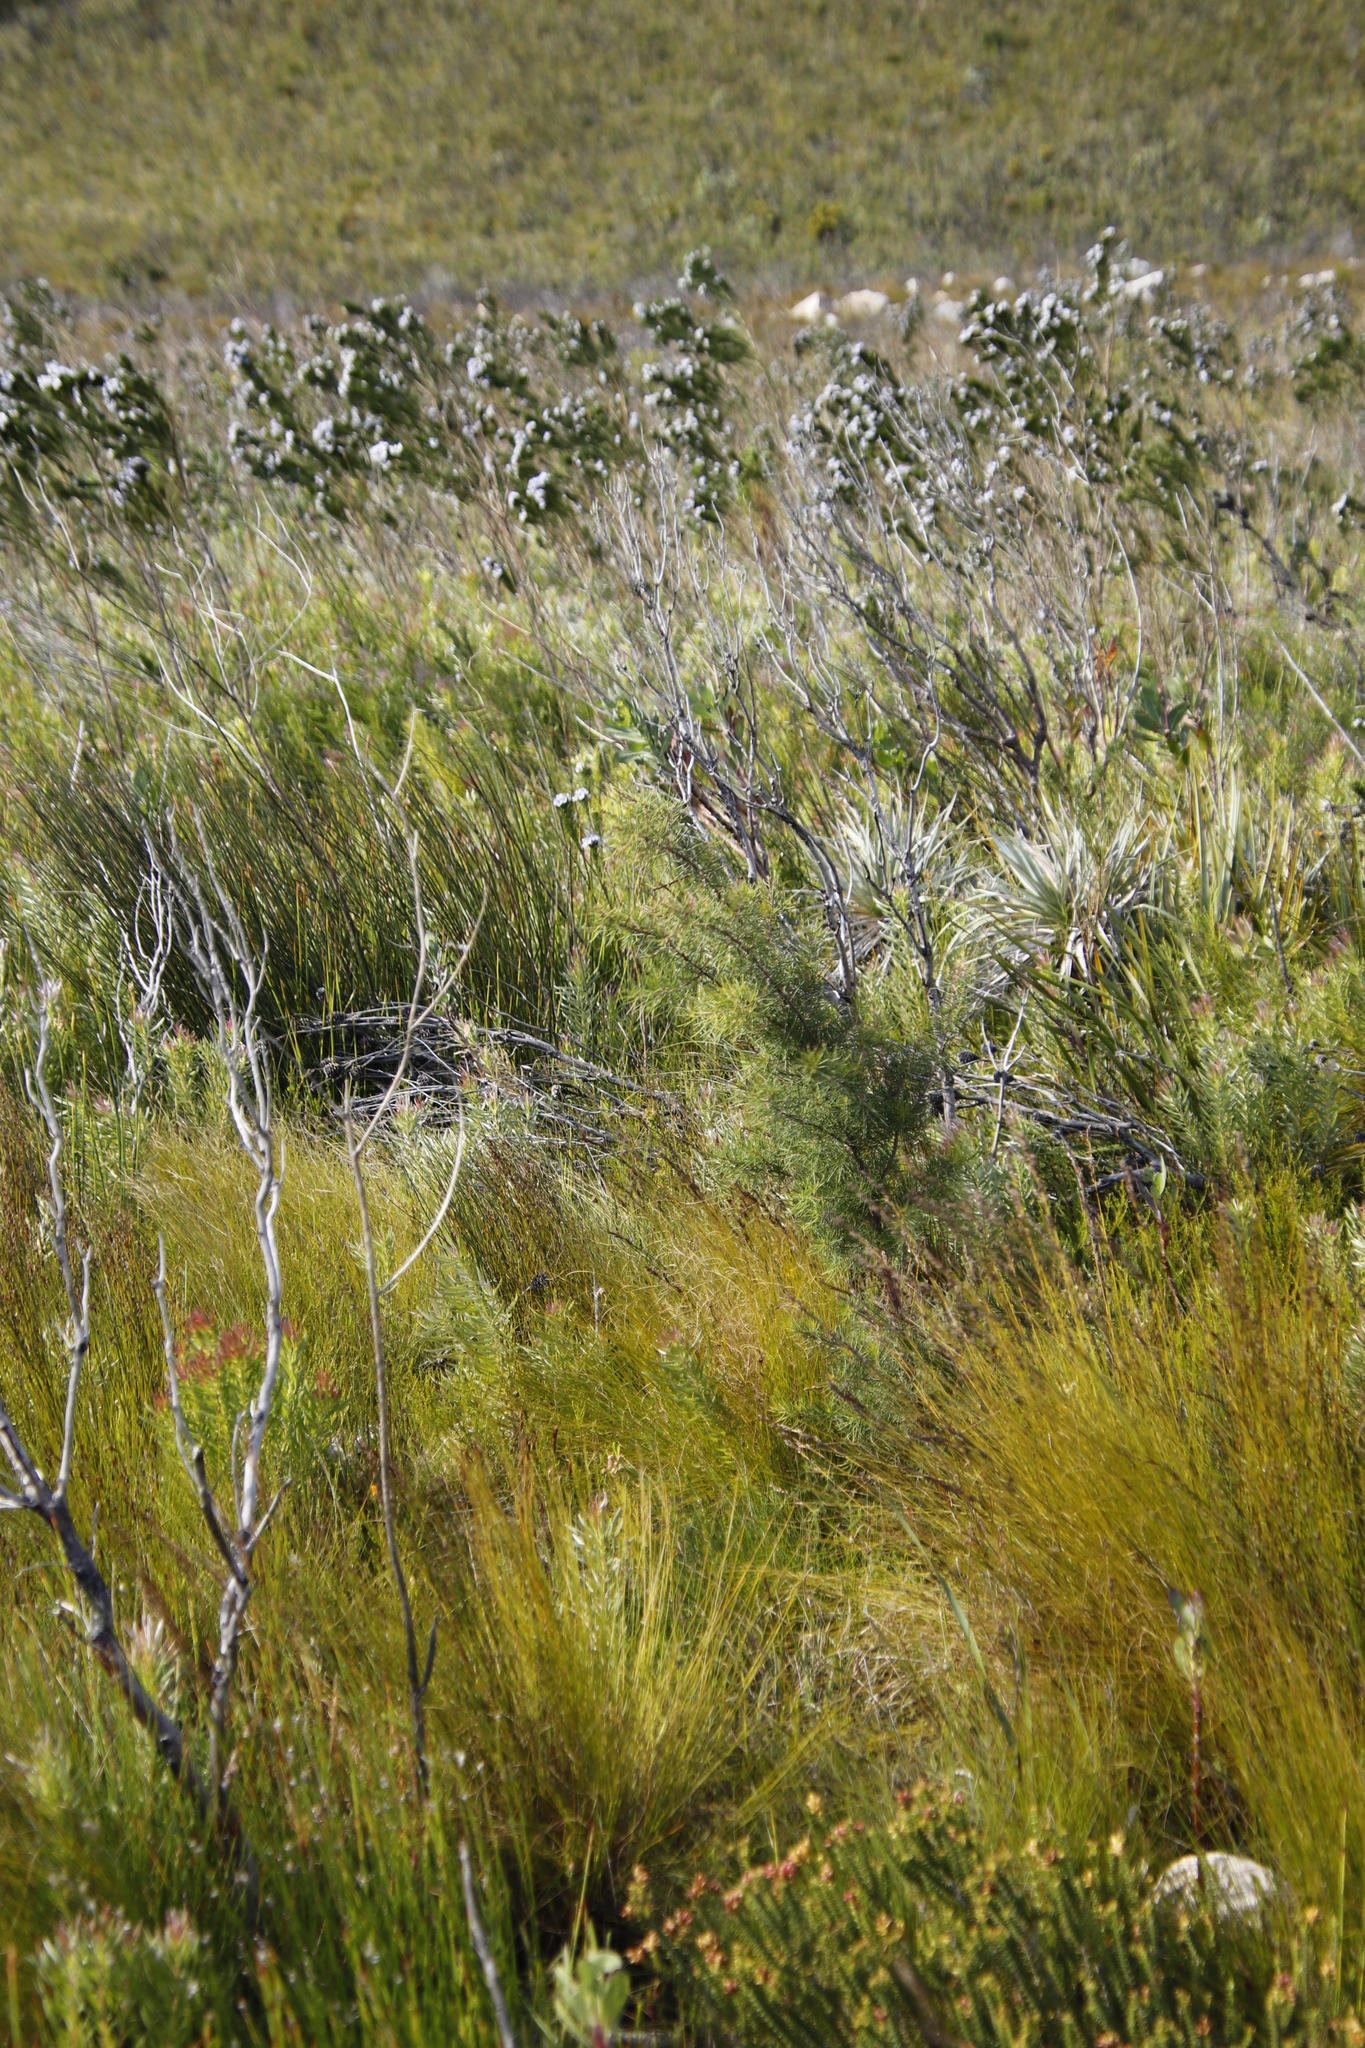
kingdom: Plantae
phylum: Tracheophyta
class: Magnoliopsida
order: Proteales
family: Proteaceae
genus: Hakea
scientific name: Hakea sericea
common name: Needle bush
